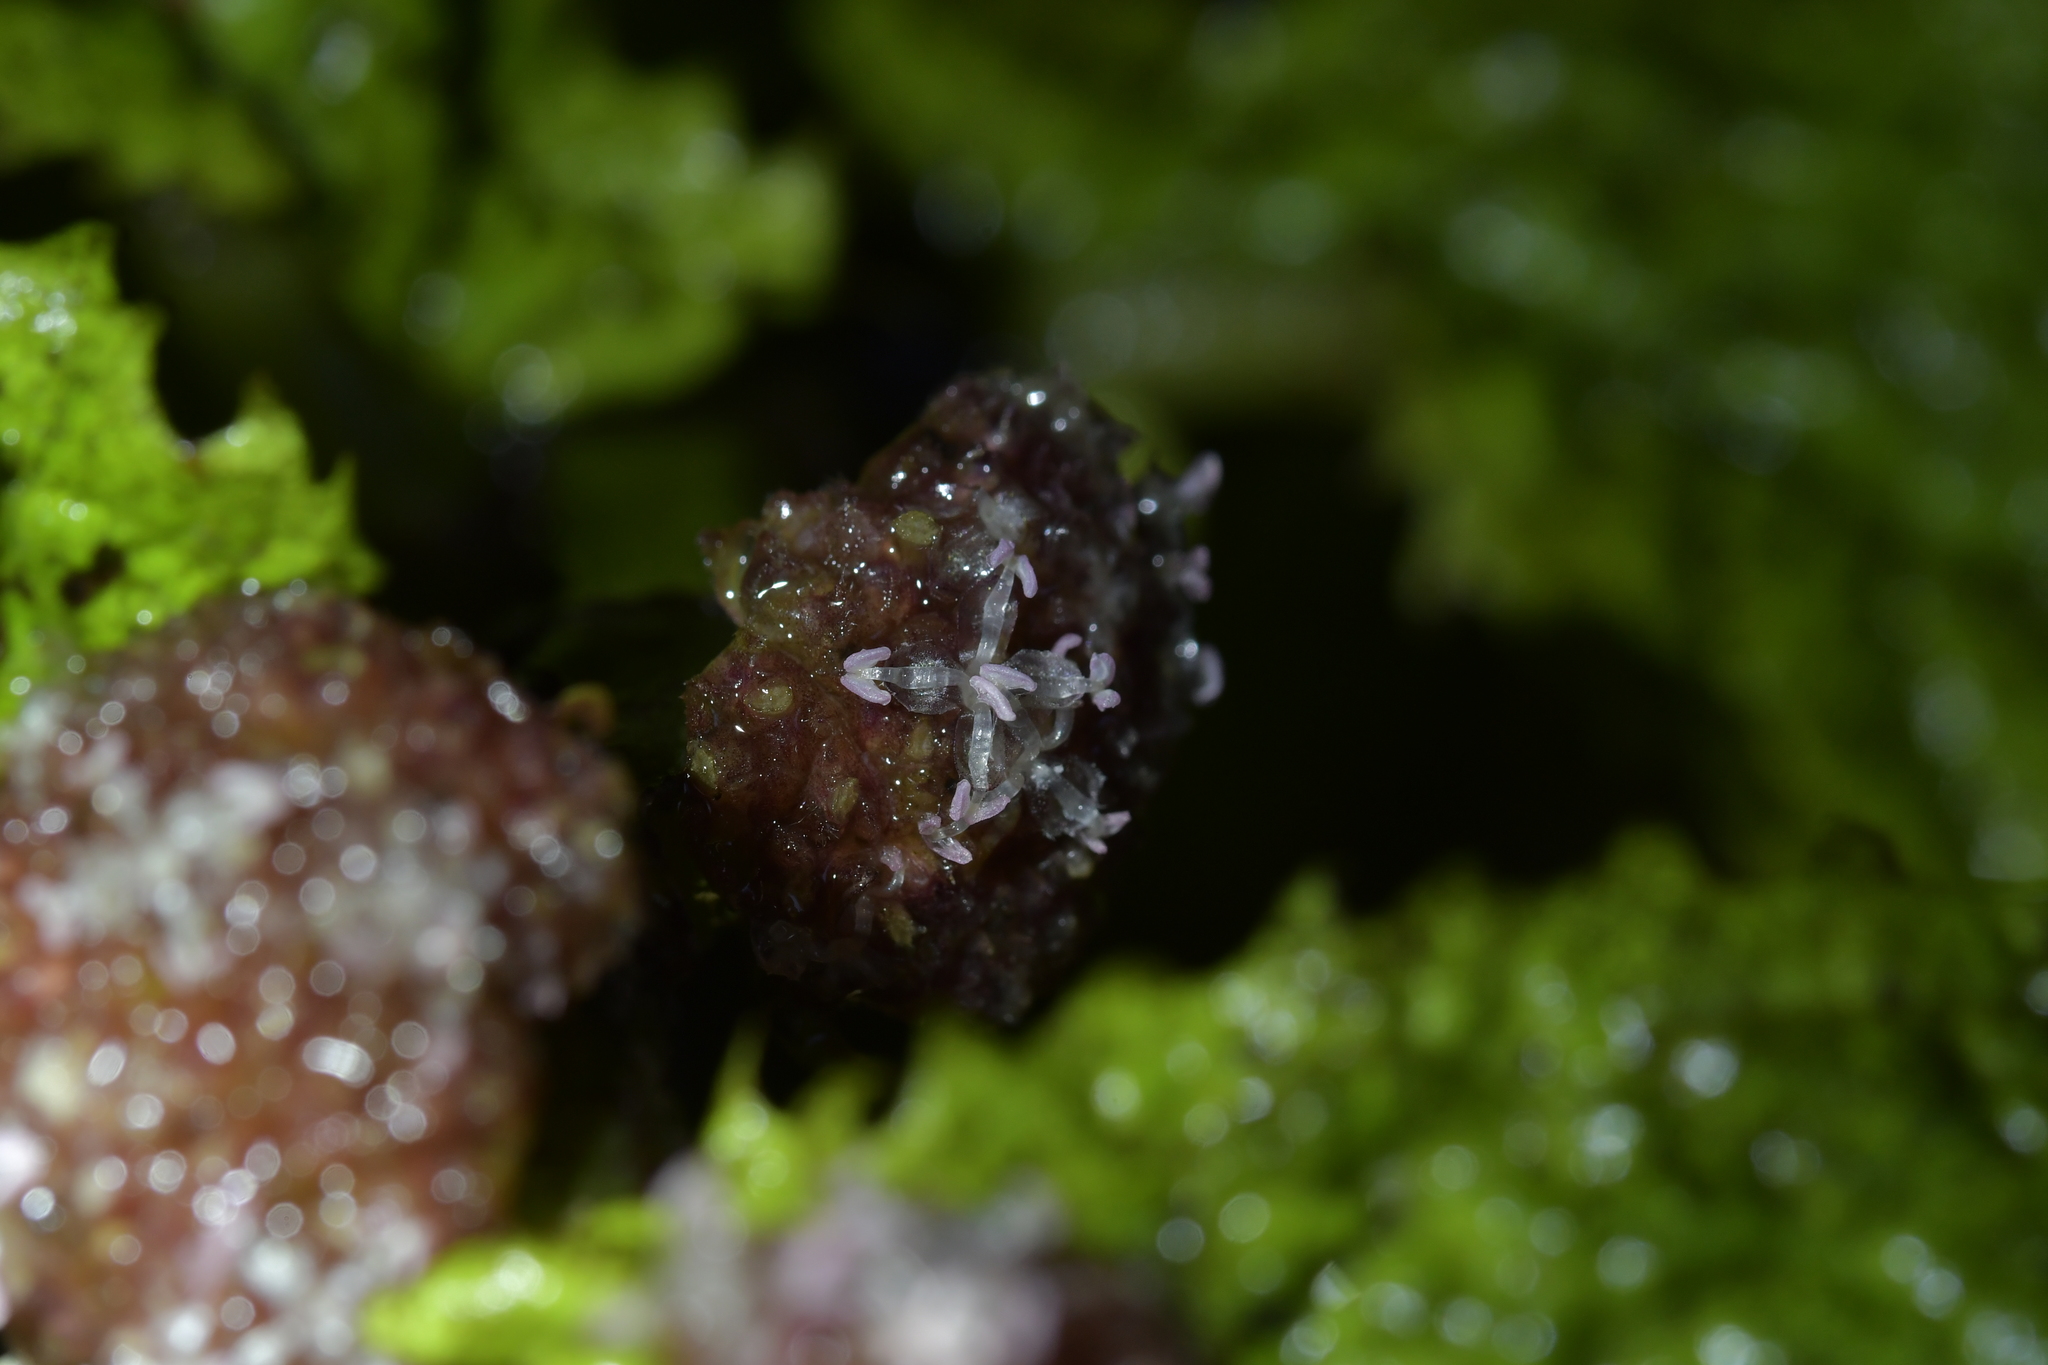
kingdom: Plantae
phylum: Tracheophyta
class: Magnoliopsida
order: Rosales
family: Urticaceae
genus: Elatostema
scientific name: Elatostema rugosum
